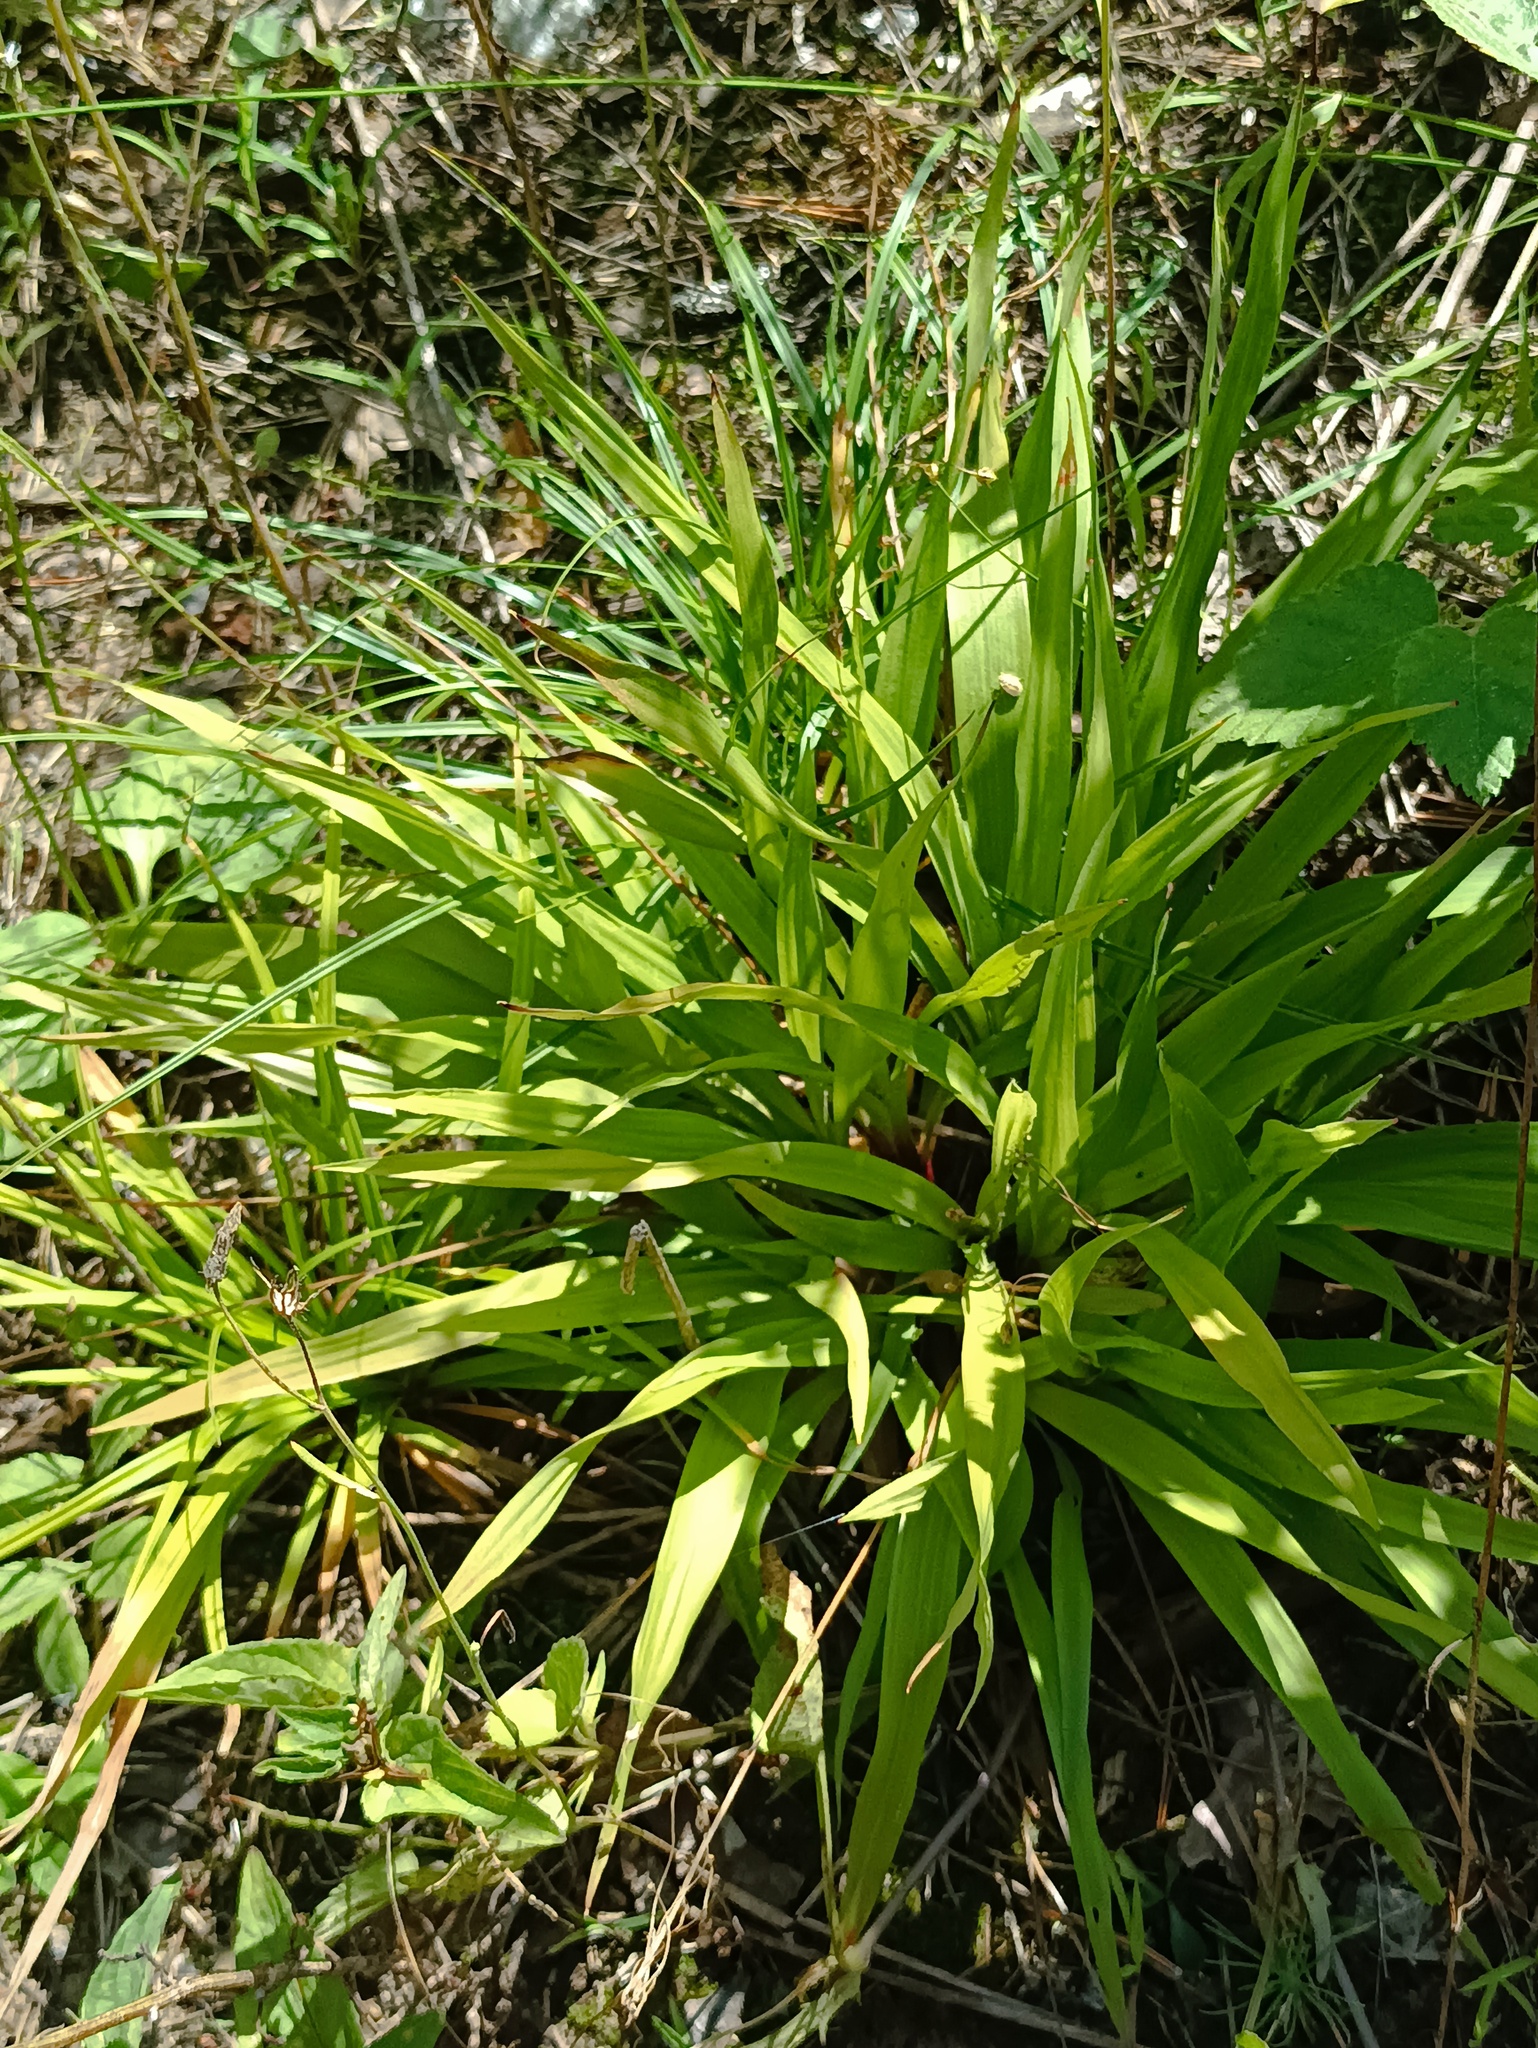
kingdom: Plantae
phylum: Tracheophyta
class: Liliopsida
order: Poales
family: Juncaceae
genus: Luzula
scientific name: Luzula pilosa
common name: Hairy wood-rush
